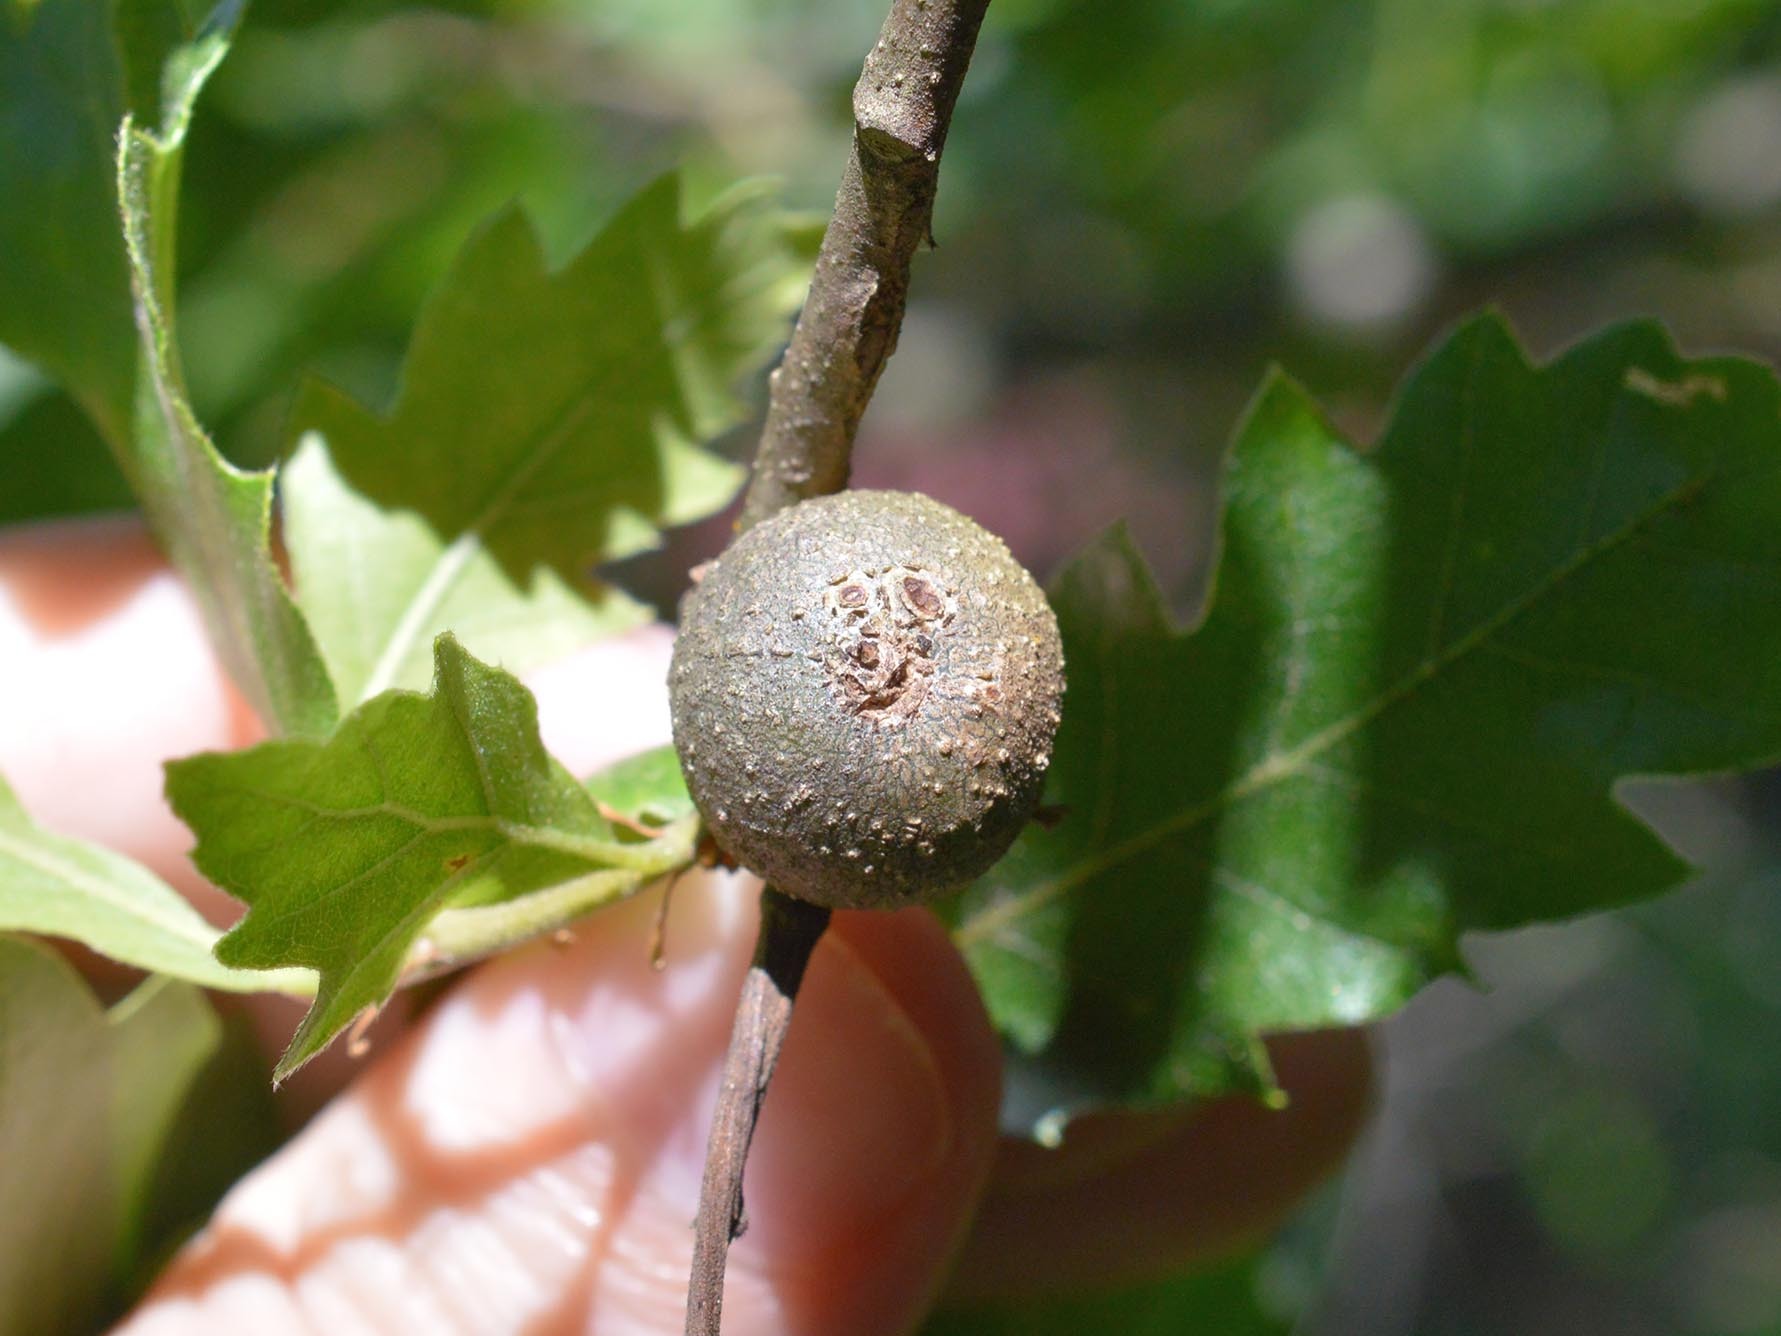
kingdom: Animalia
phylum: Arthropoda
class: Insecta
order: Hymenoptera
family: Cynipidae
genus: Synophrus
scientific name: Synophrus politus
